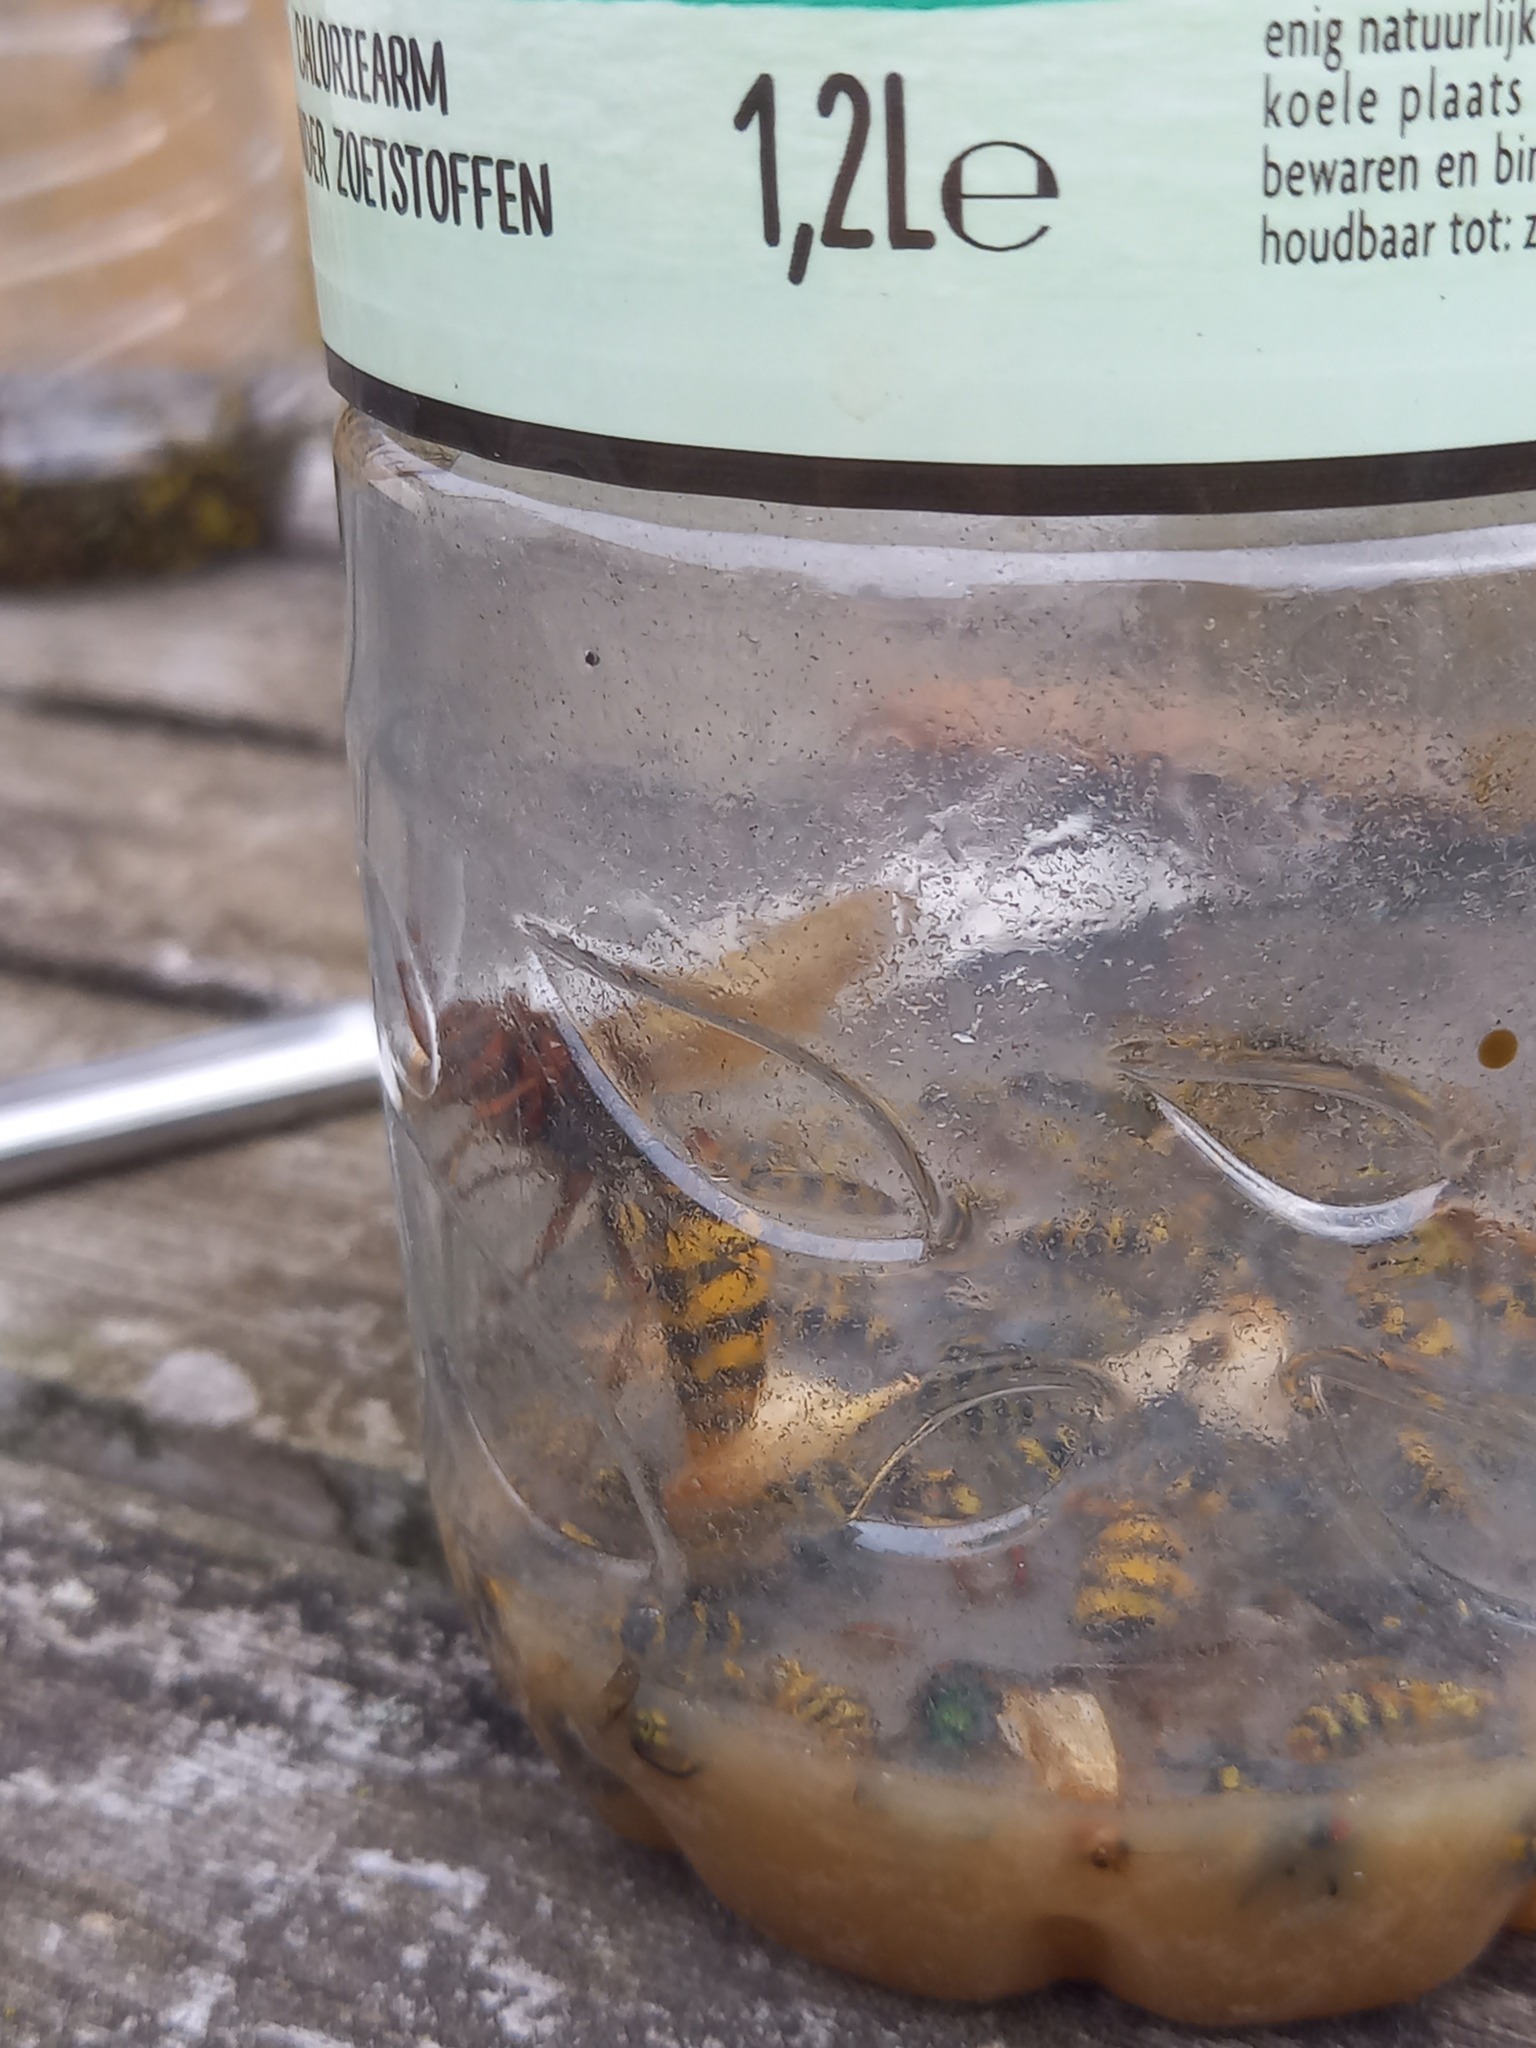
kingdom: Animalia
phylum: Arthropoda
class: Insecta
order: Hymenoptera
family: Vespidae
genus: Vespa
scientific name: Vespa crabro
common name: Hornet
